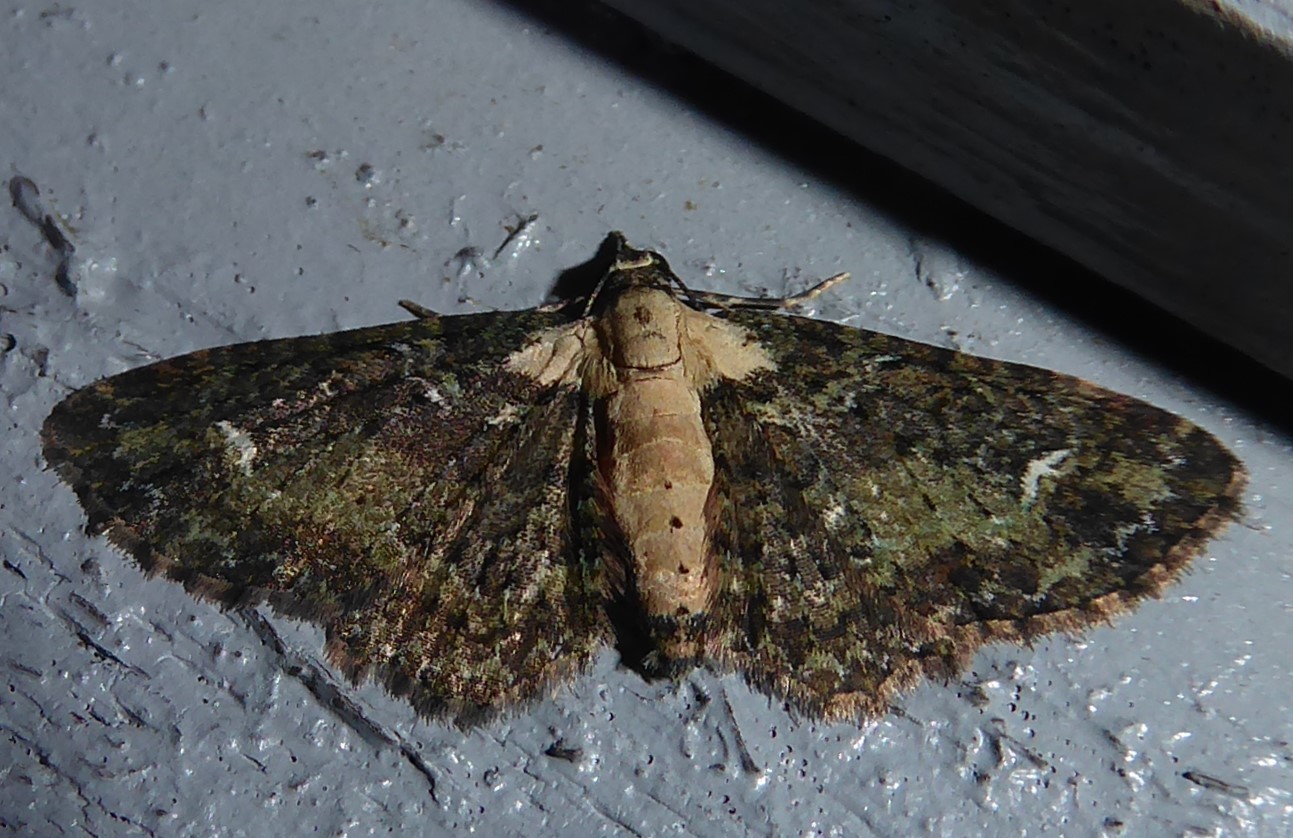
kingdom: Animalia
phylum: Arthropoda
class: Insecta
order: Lepidoptera
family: Geometridae
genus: Pasiphilodes
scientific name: Pasiphilodes testulata
